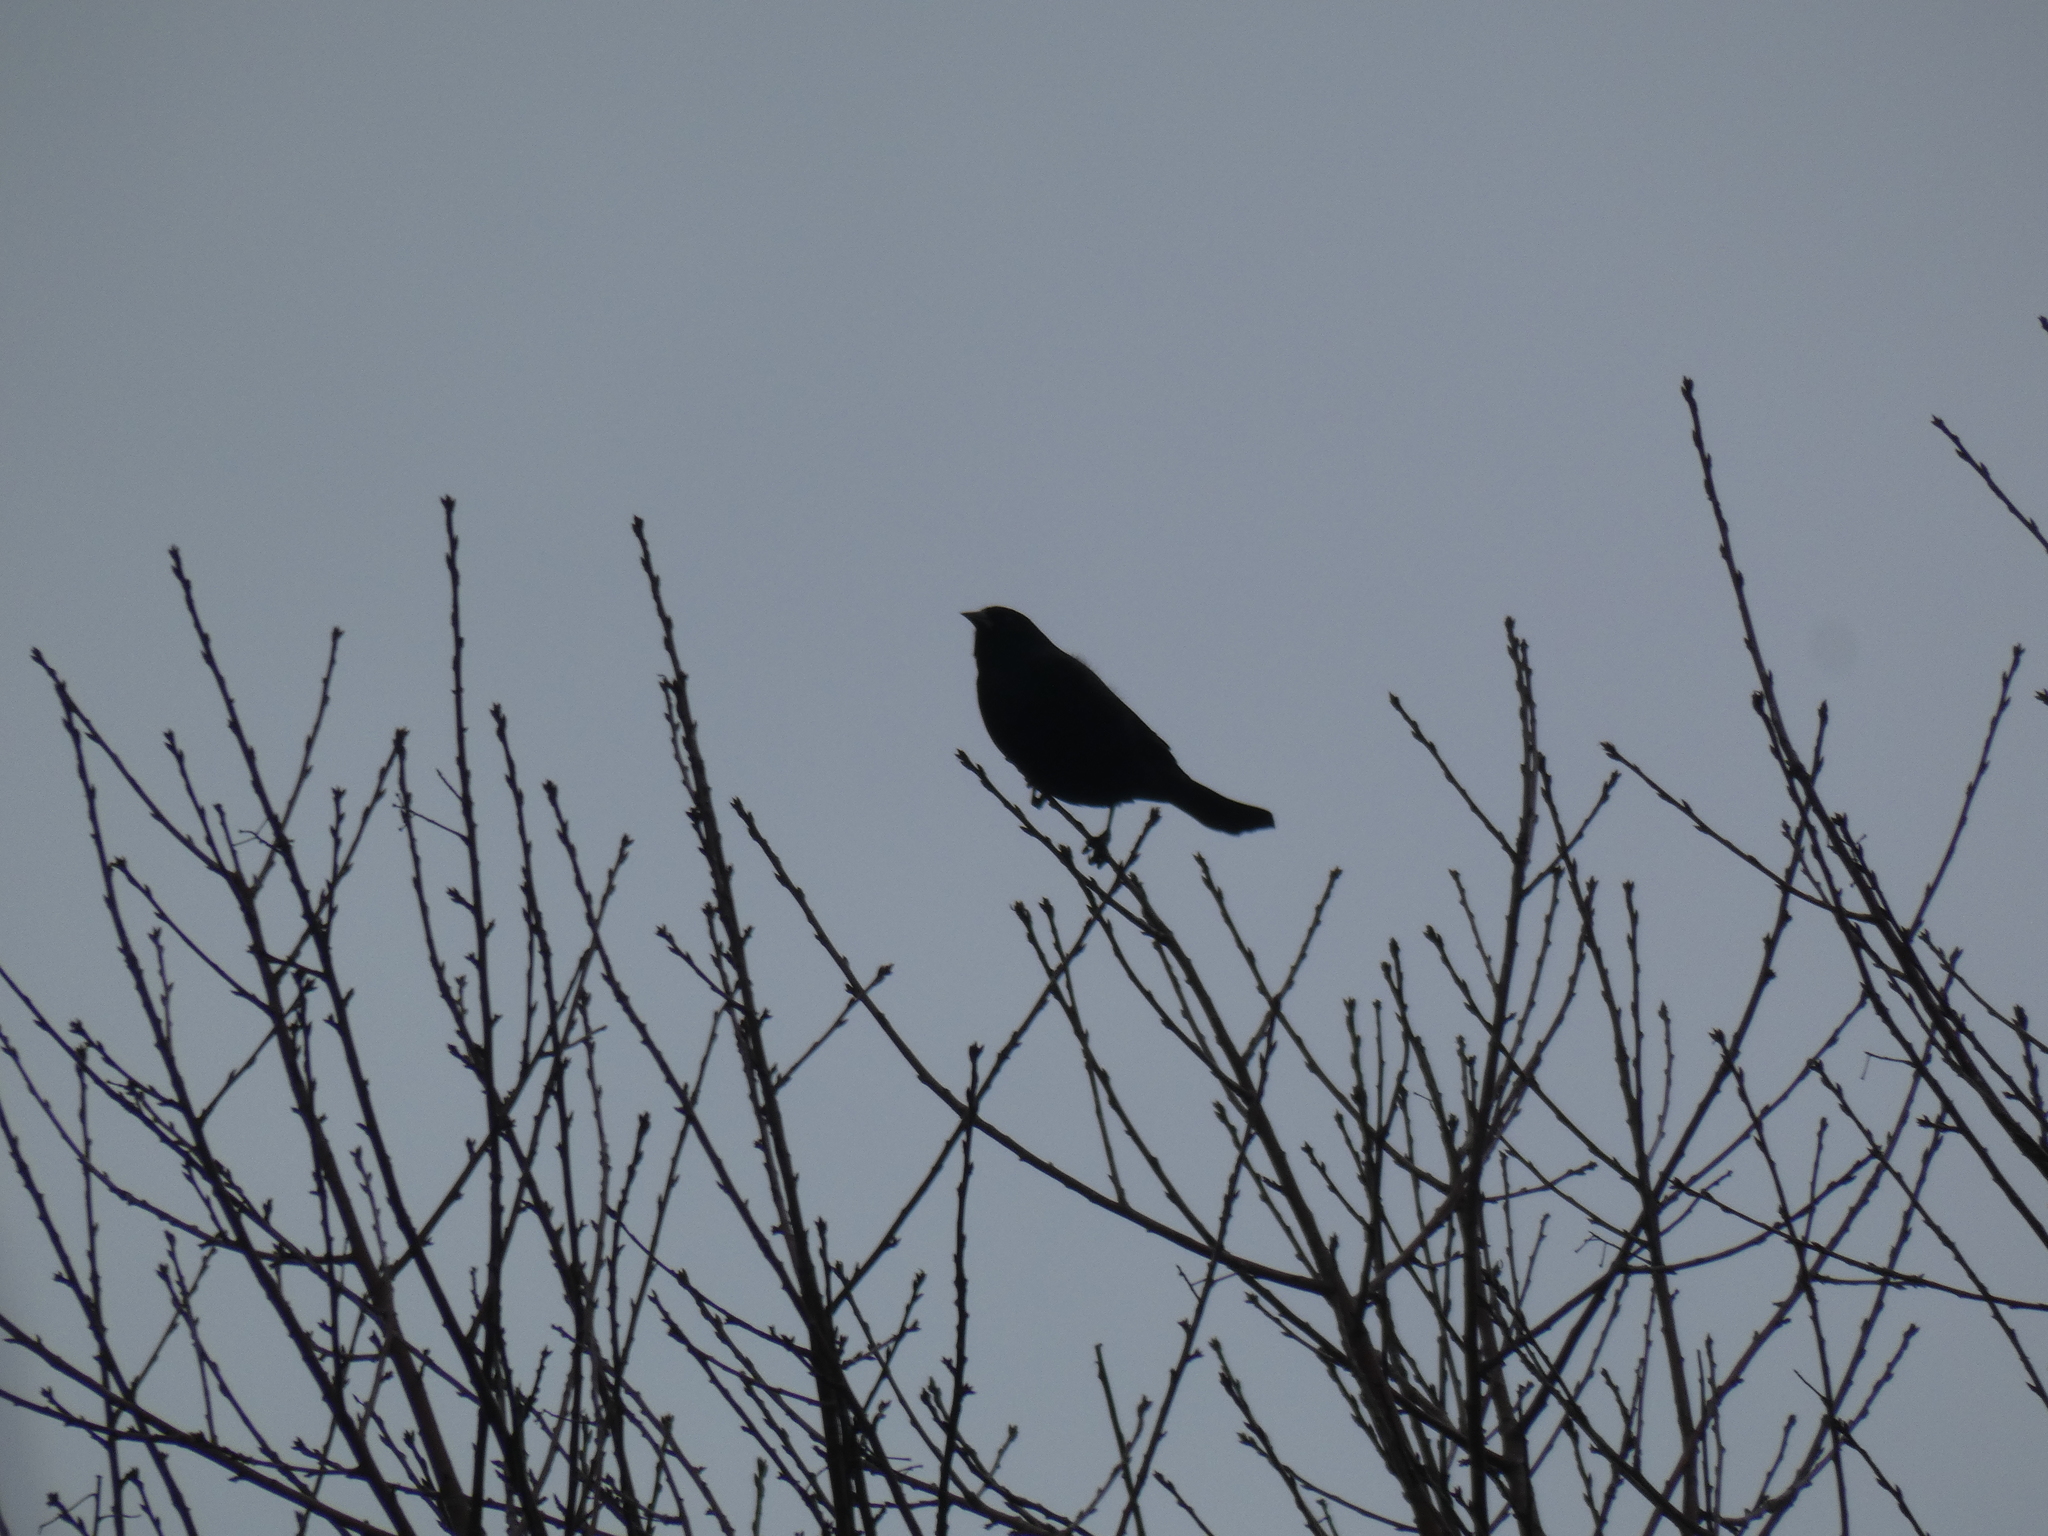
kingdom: Animalia
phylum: Chordata
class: Aves
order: Passeriformes
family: Icteridae
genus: Agelaius
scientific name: Agelaius phoeniceus
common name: Red-winged blackbird
